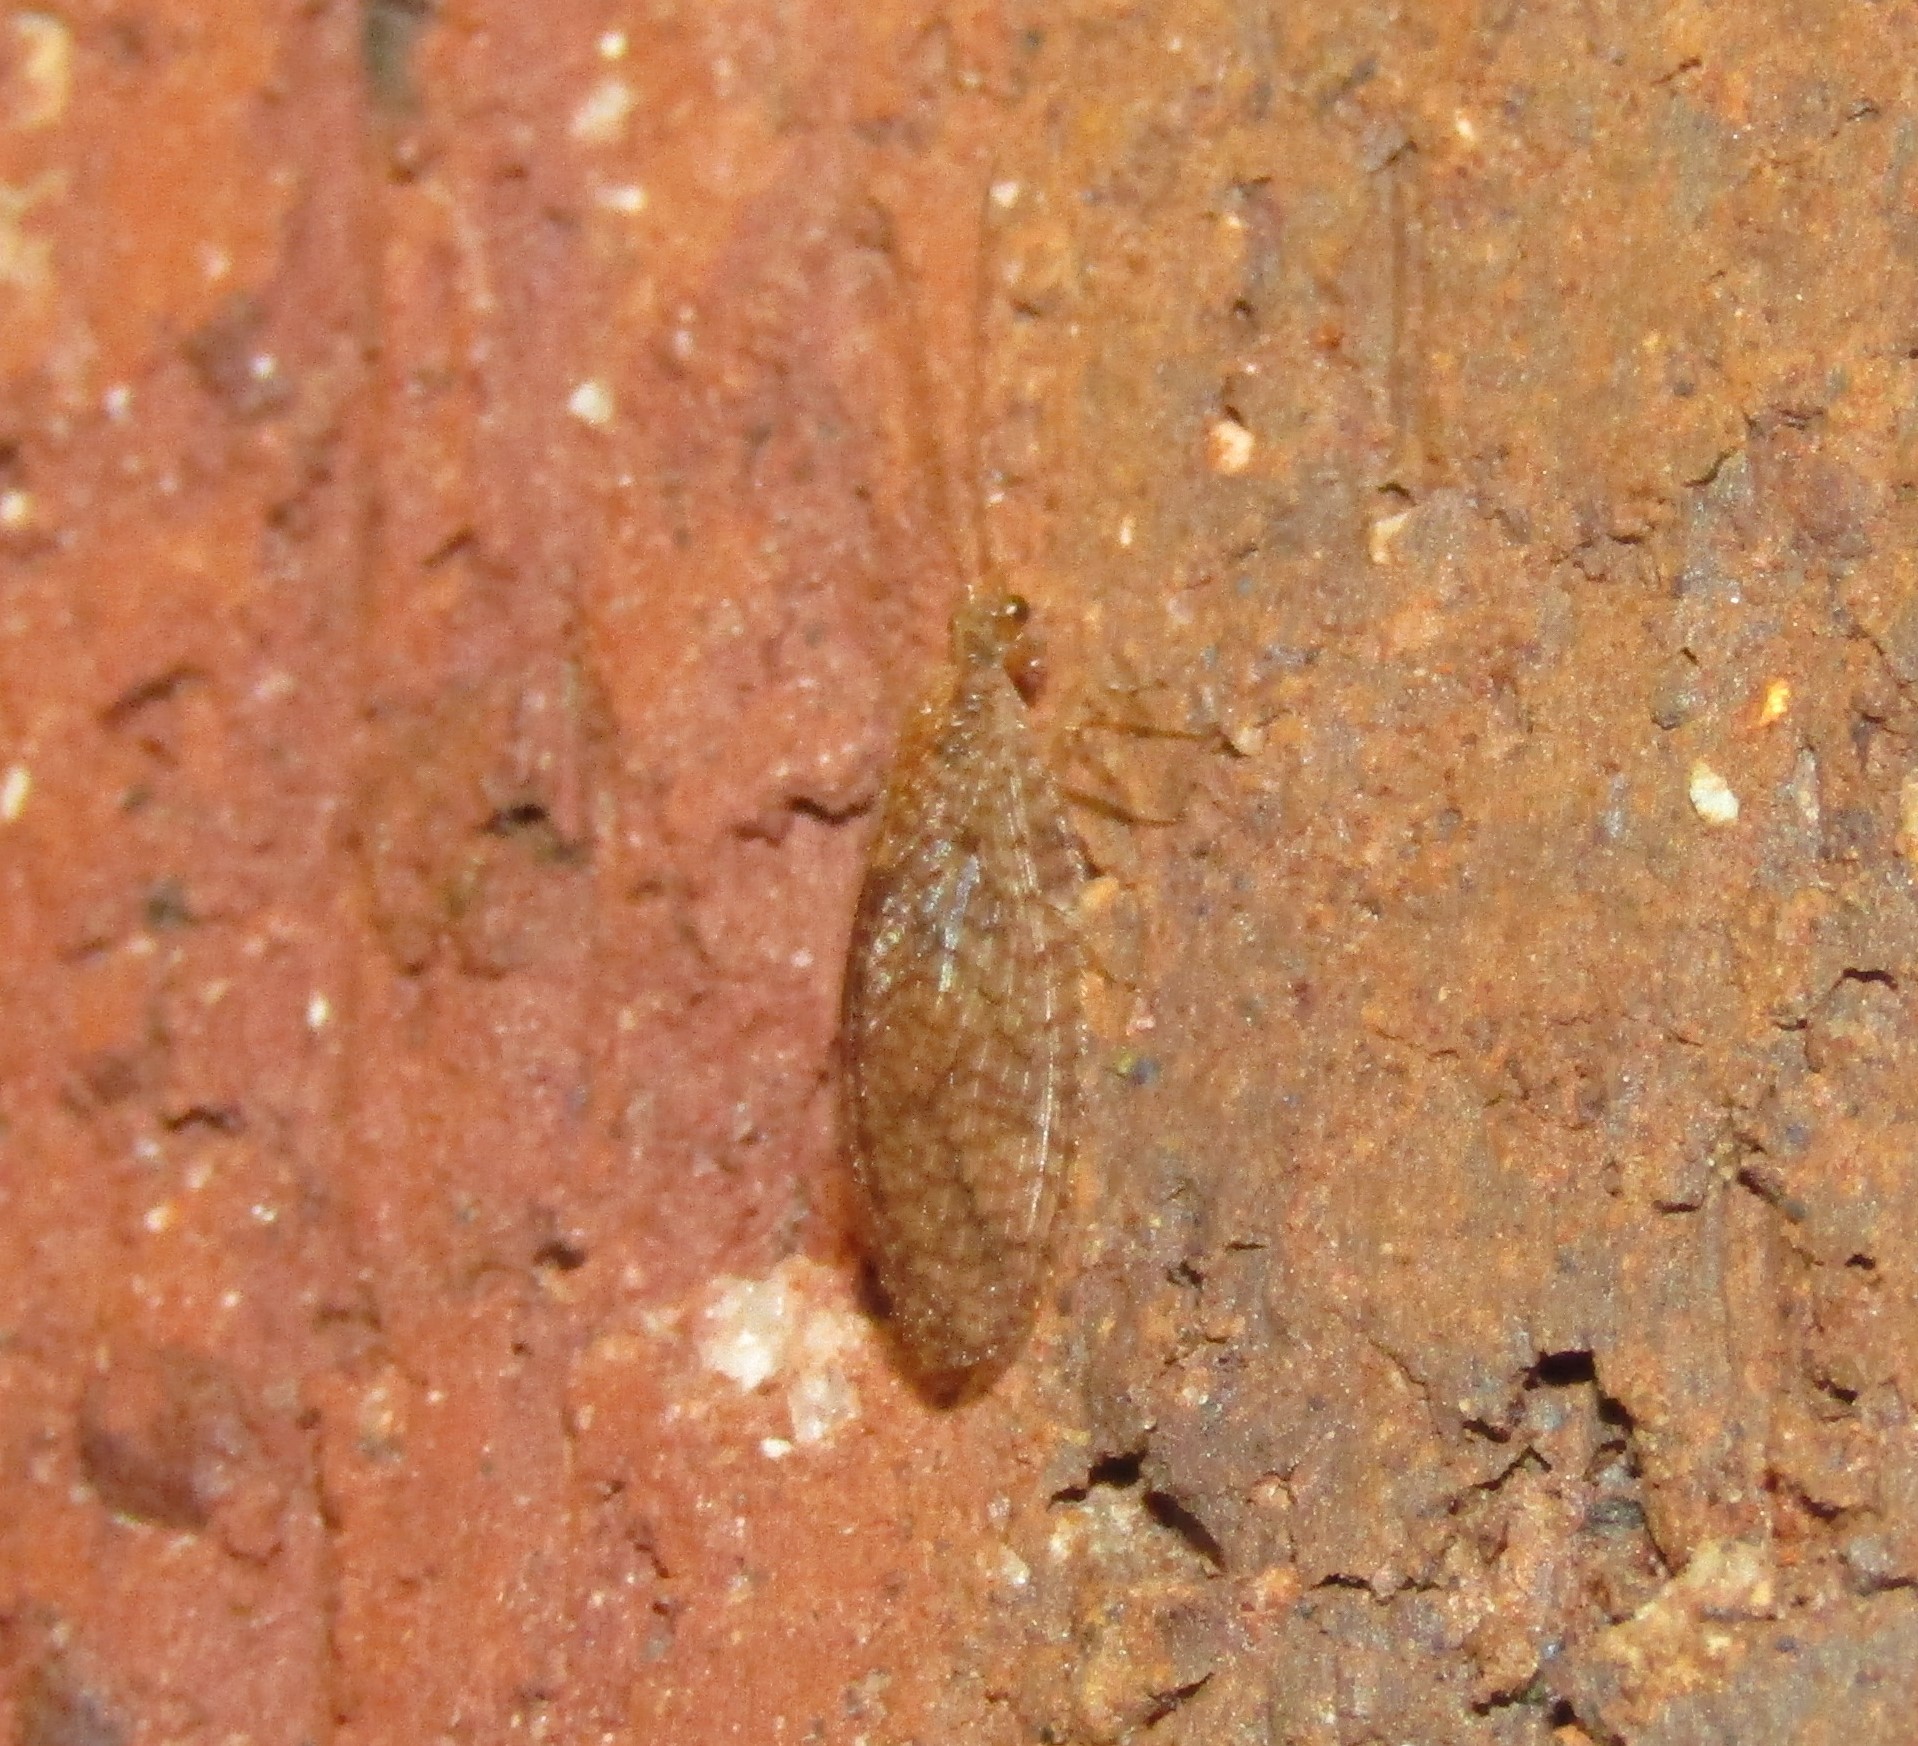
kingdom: Animalia
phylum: Arthropoda
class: Insecta
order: Neuroptera
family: Hemerobiidae
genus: Micromus
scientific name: Micromus posticus
